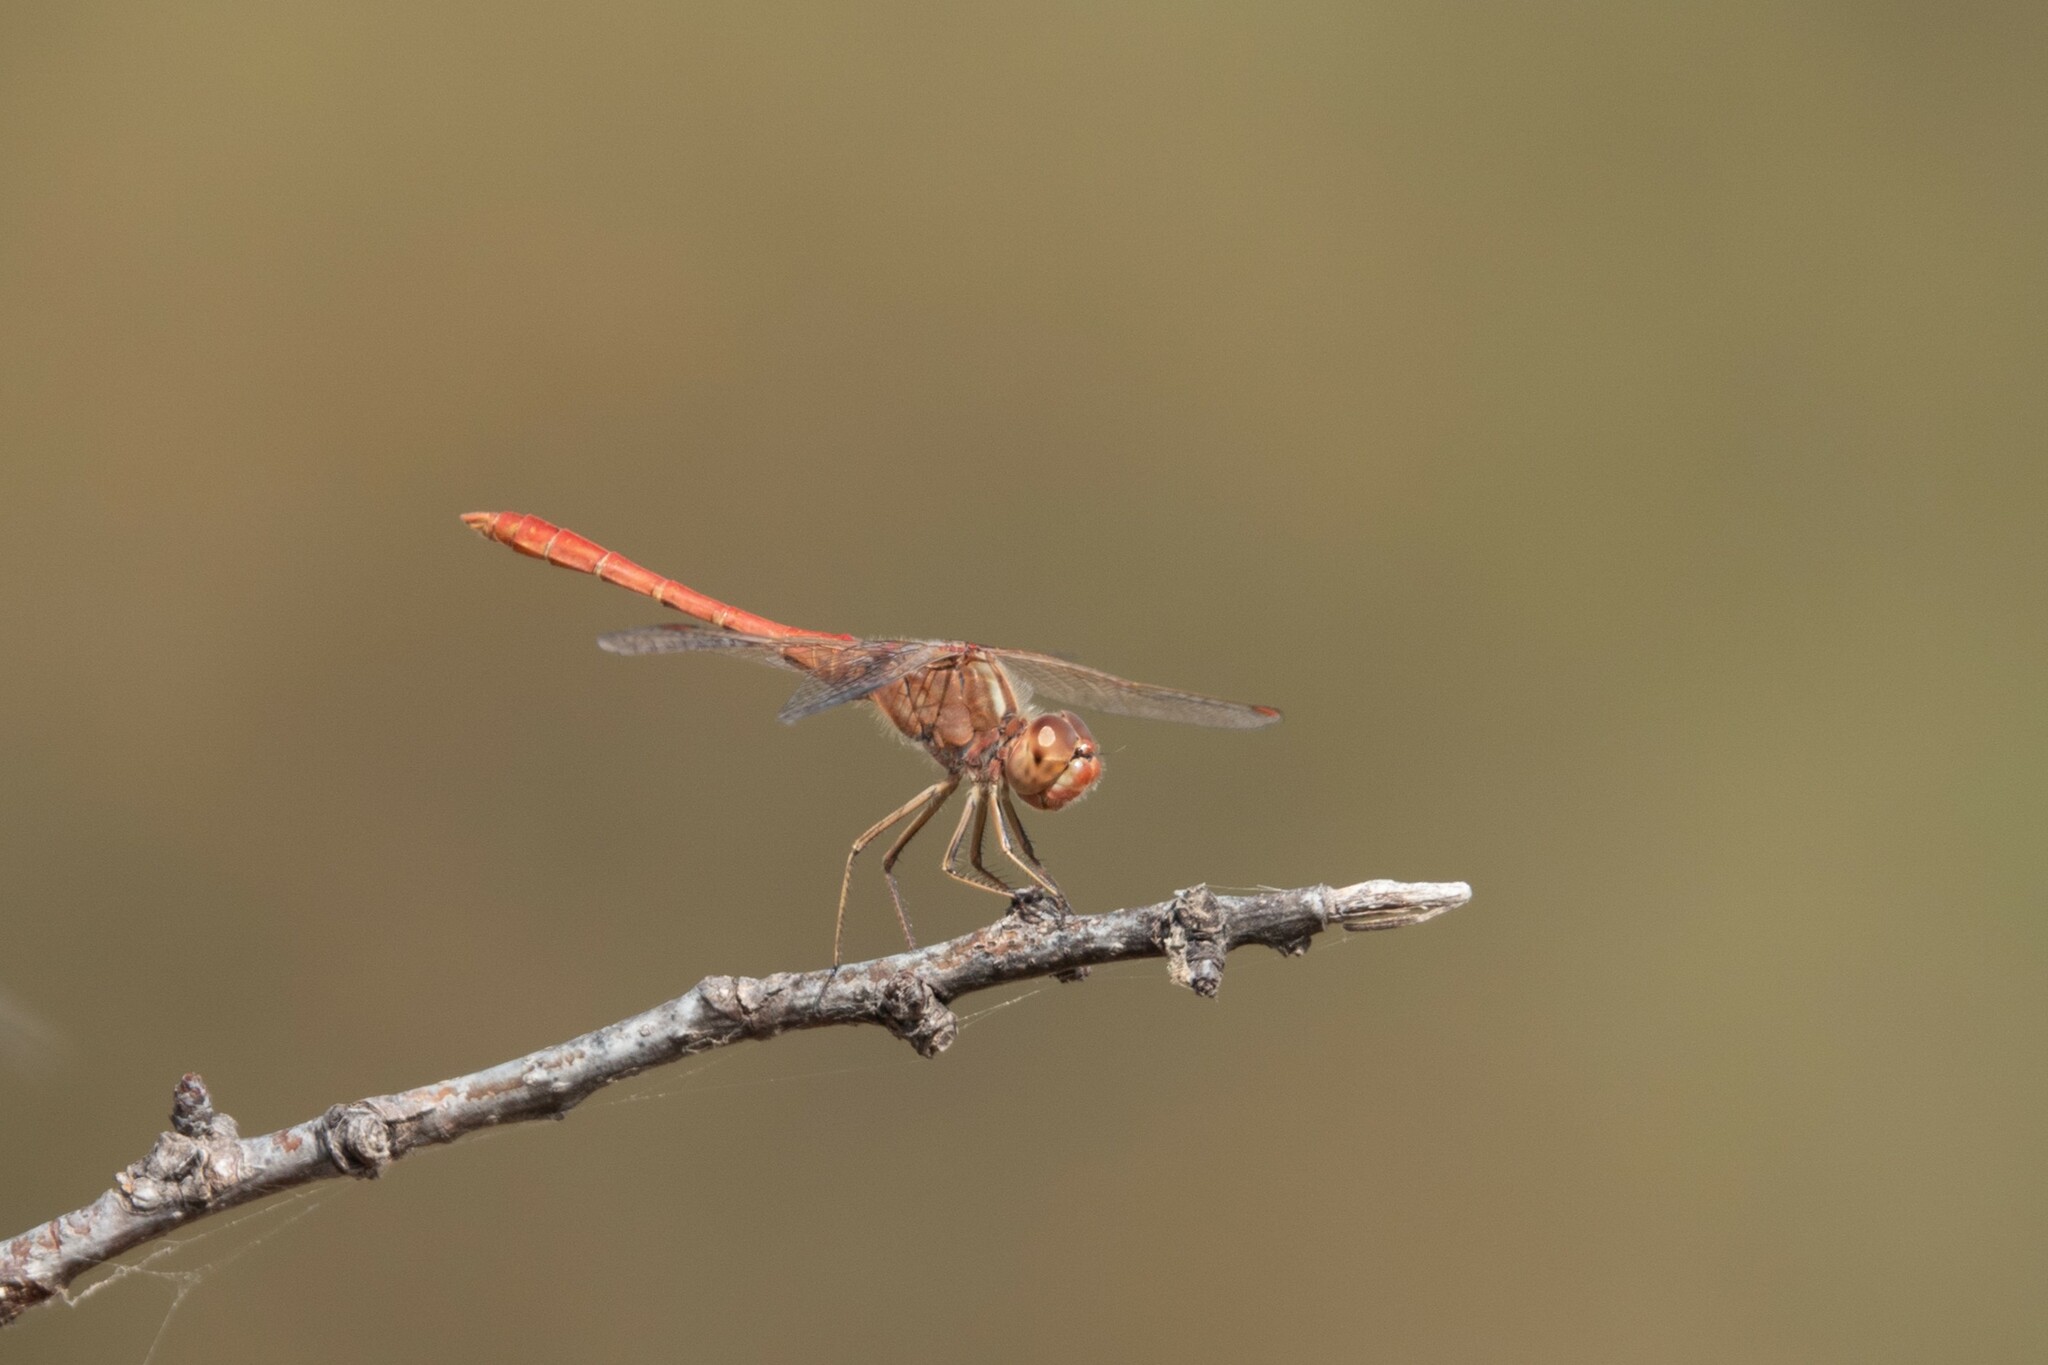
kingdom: Animalia
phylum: Arthropoda
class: Insecta
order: Odonata
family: Libellulidae
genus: Sympetrum
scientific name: Sympetrum meridionale
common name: Southern darter
